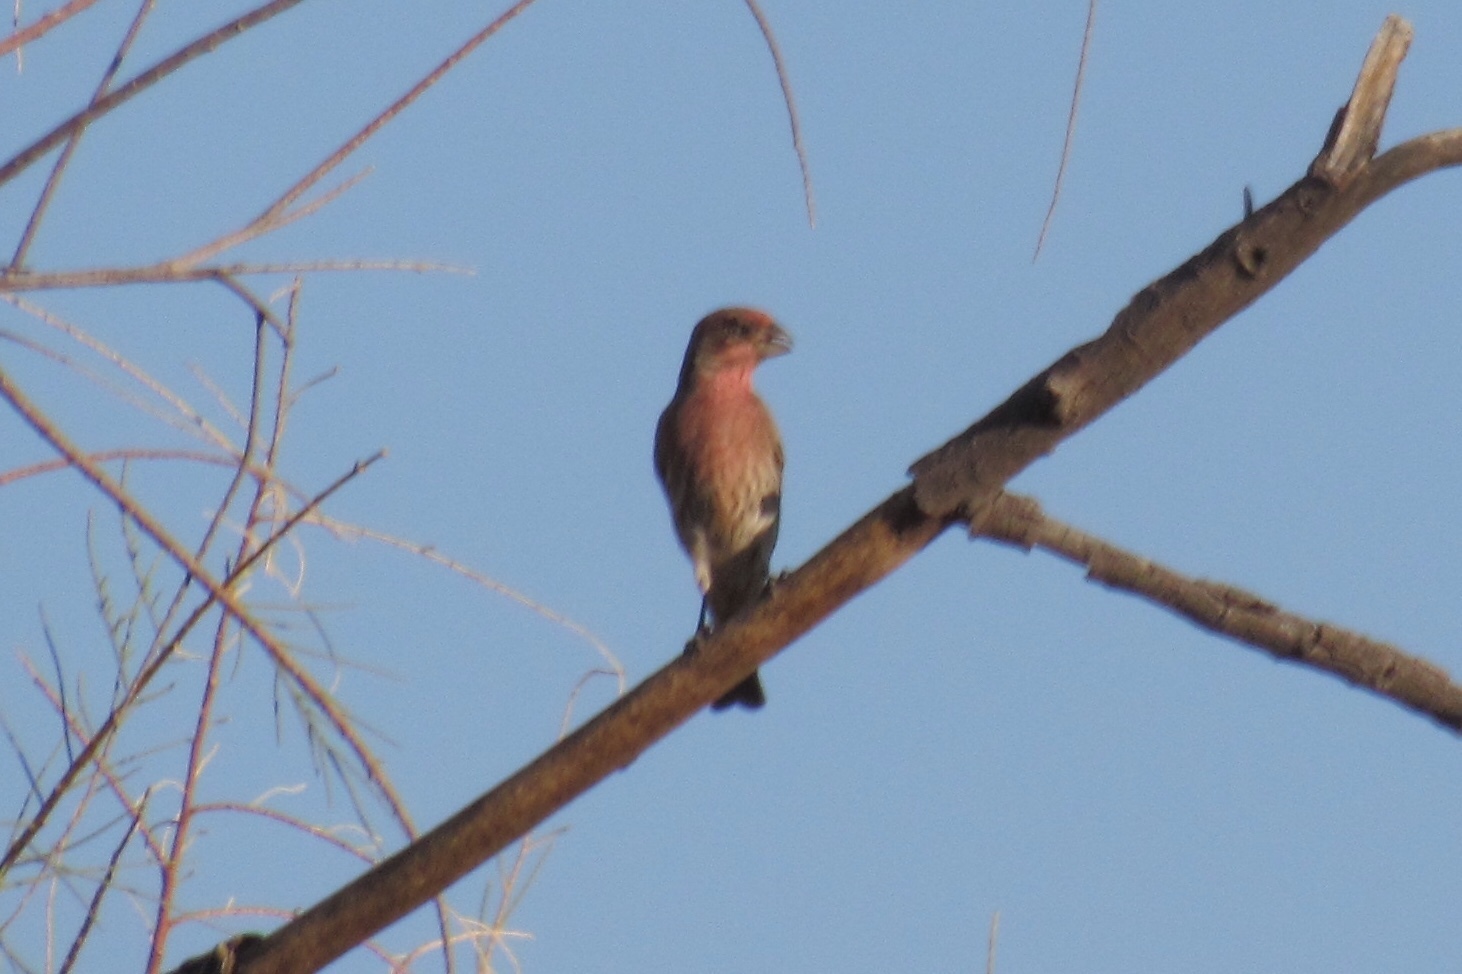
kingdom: Animalia
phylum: Chordata
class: Aves
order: Passeriformes
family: Fringillidae
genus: Haemorhous
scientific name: Haemorhous mexicanus
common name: House finch
